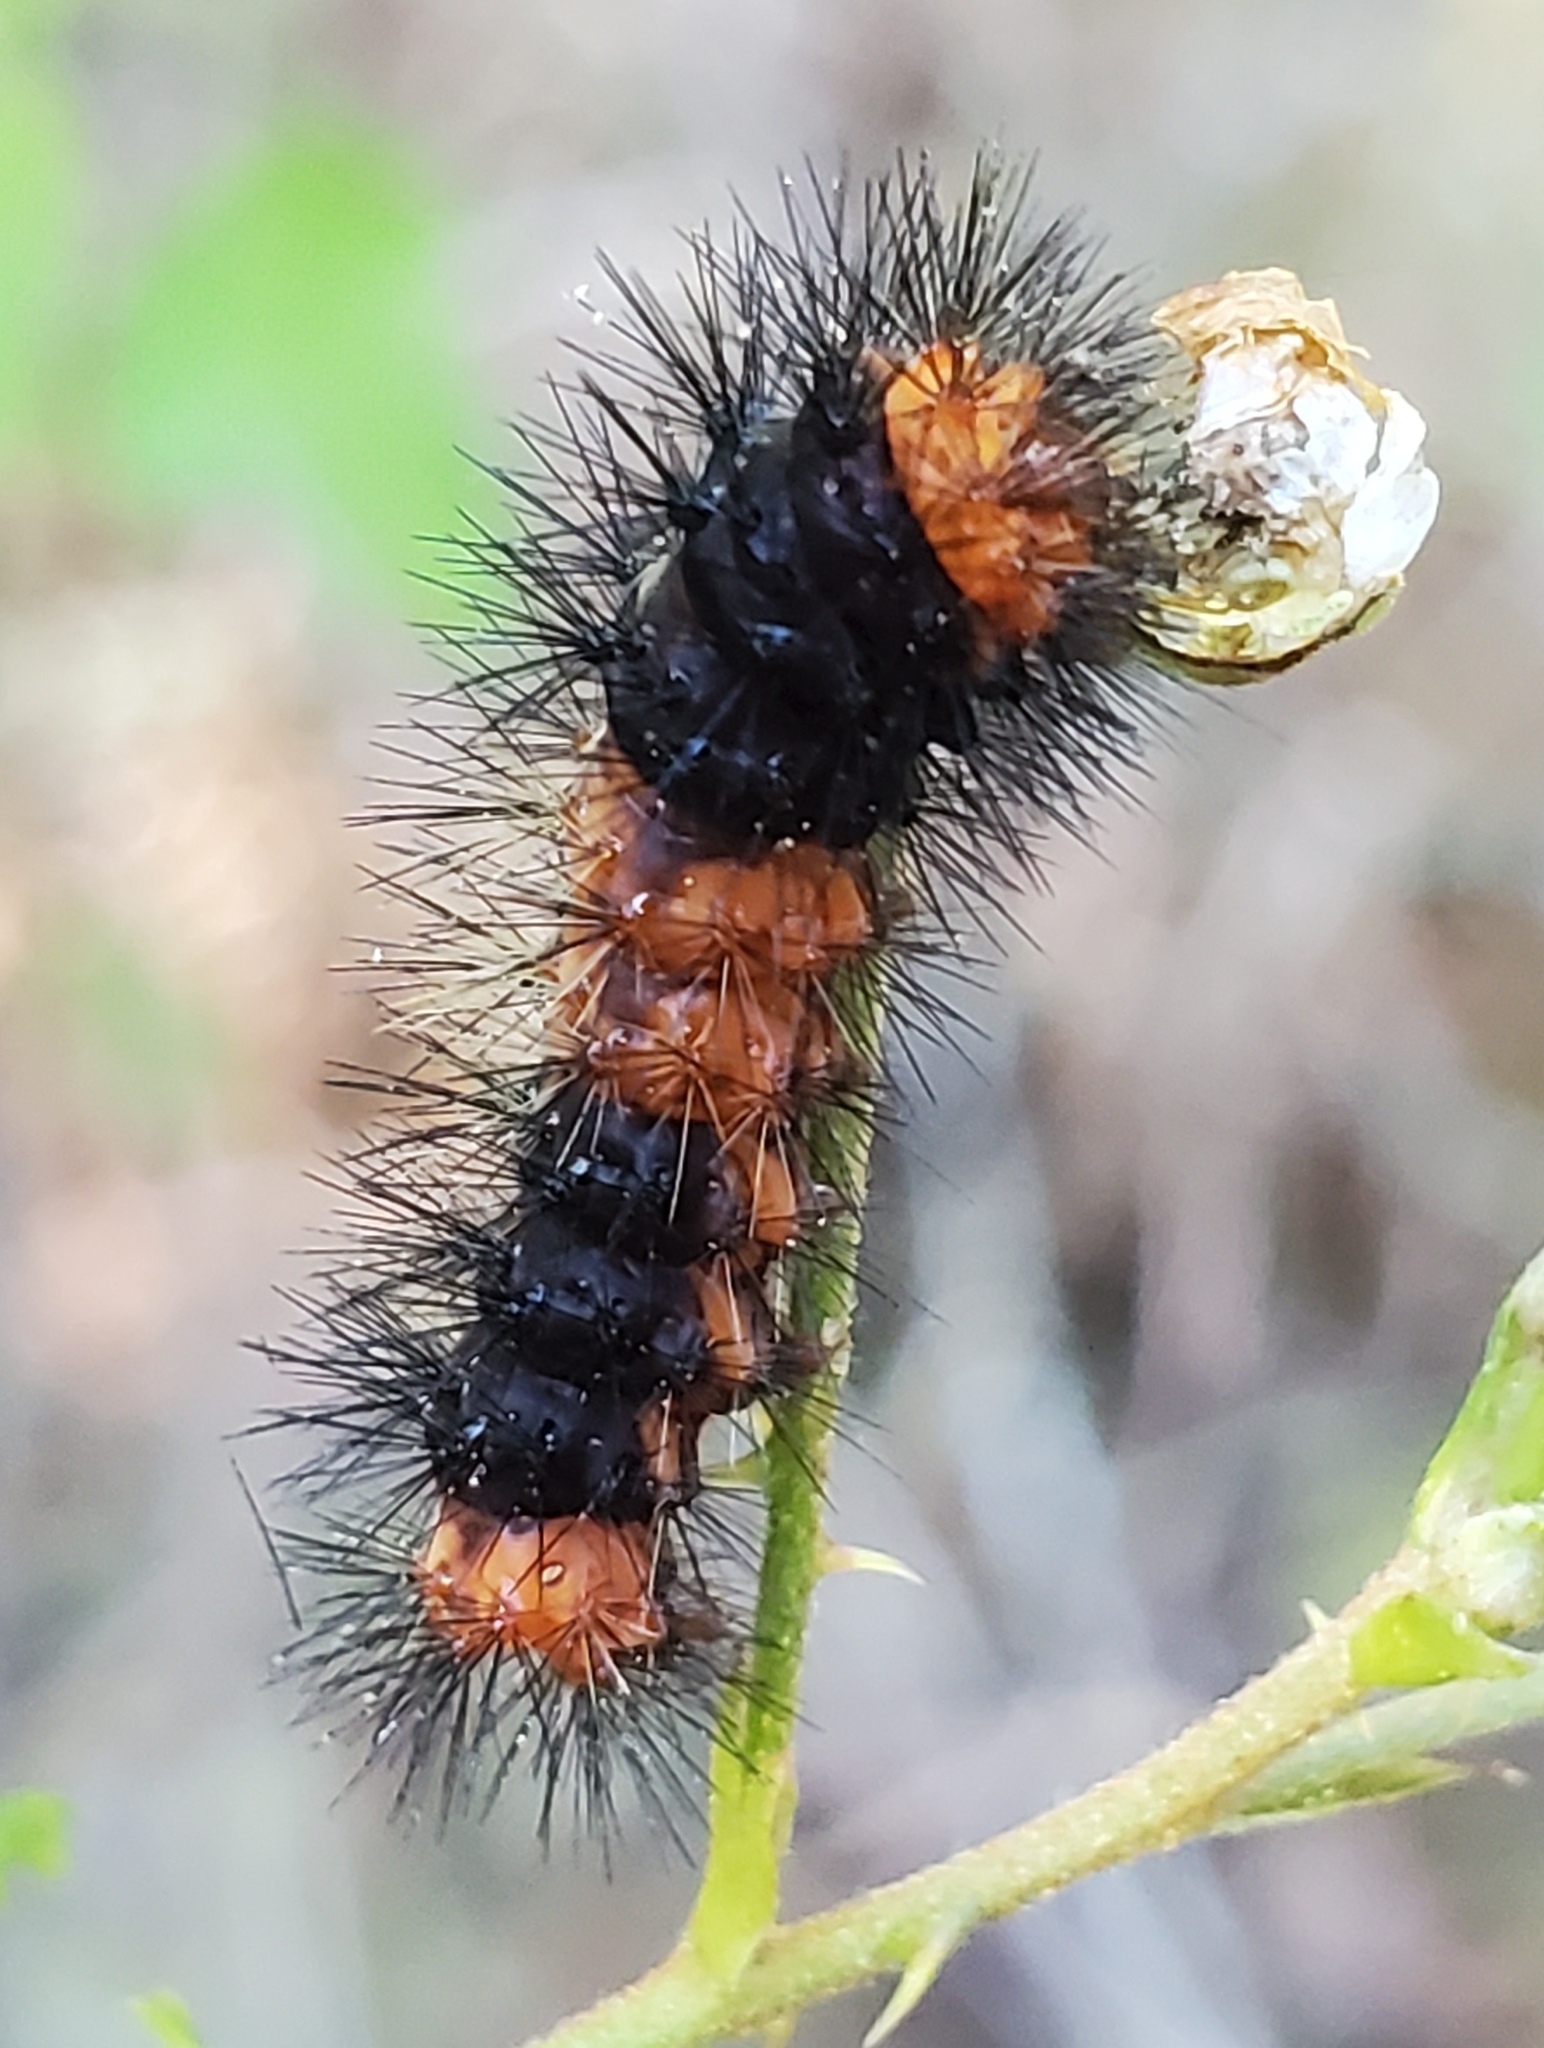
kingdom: Animalia
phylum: Arthropoda
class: Insecta
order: Lepidoptera
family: Erebidae
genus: Hypercompe
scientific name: Hypercompe scribonia
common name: Giant leopard moth
